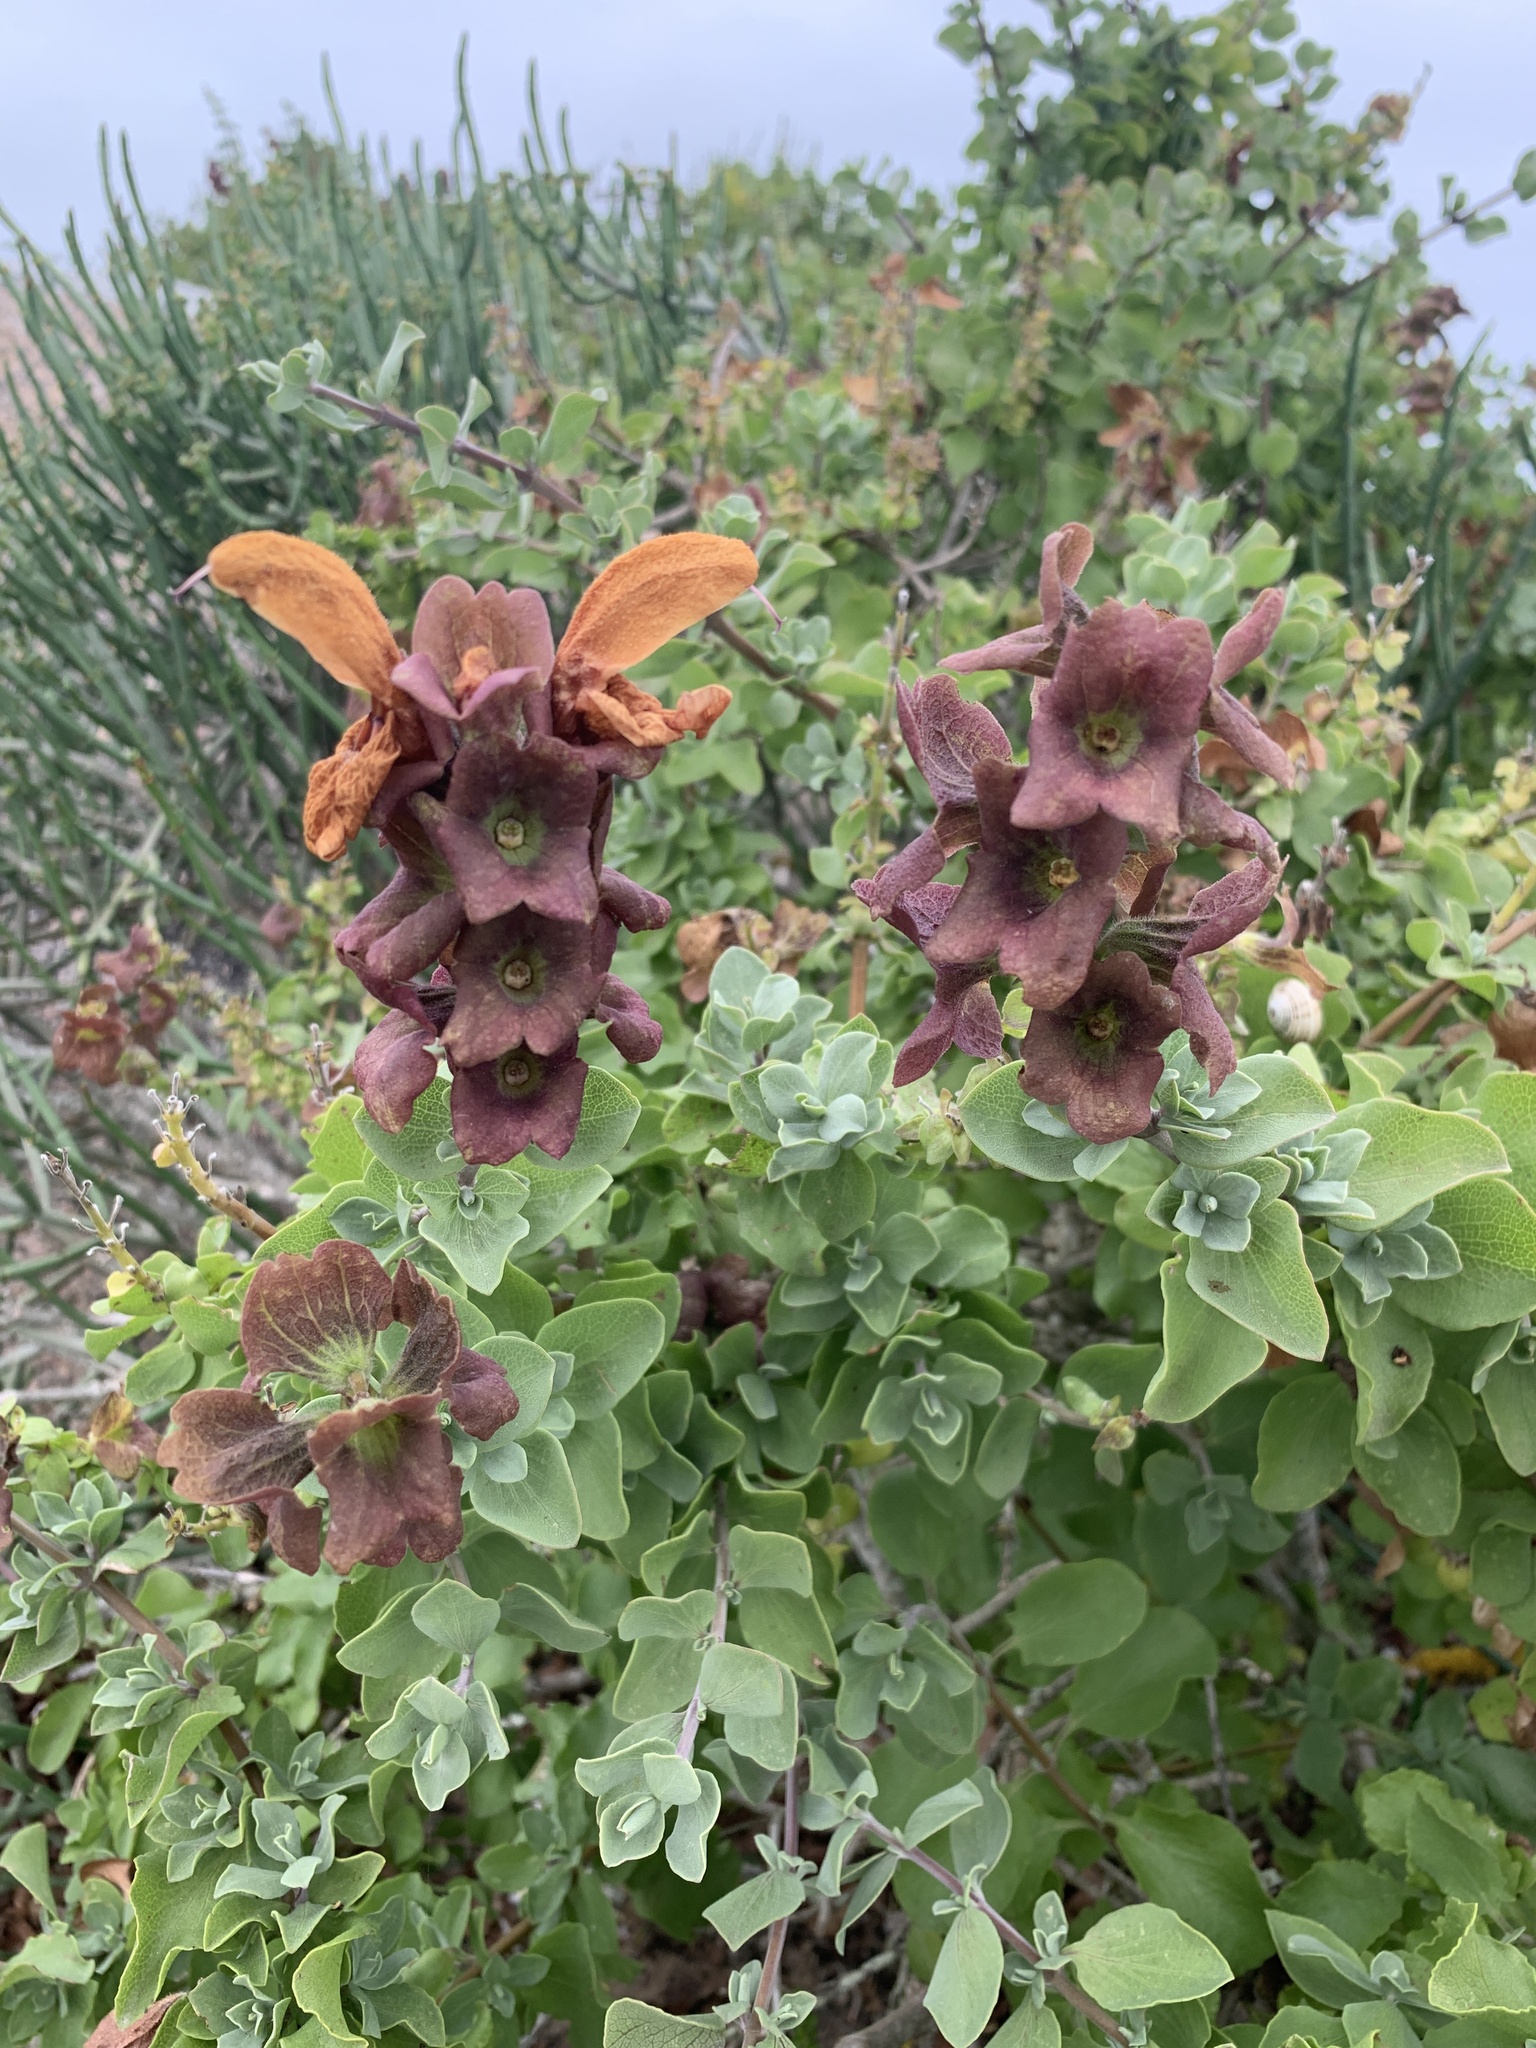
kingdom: Plantae
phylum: Tracheophyta
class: Magnoliopsida
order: Lamiales
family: Lamiaceae
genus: Salvia
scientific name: Salvia aurea
